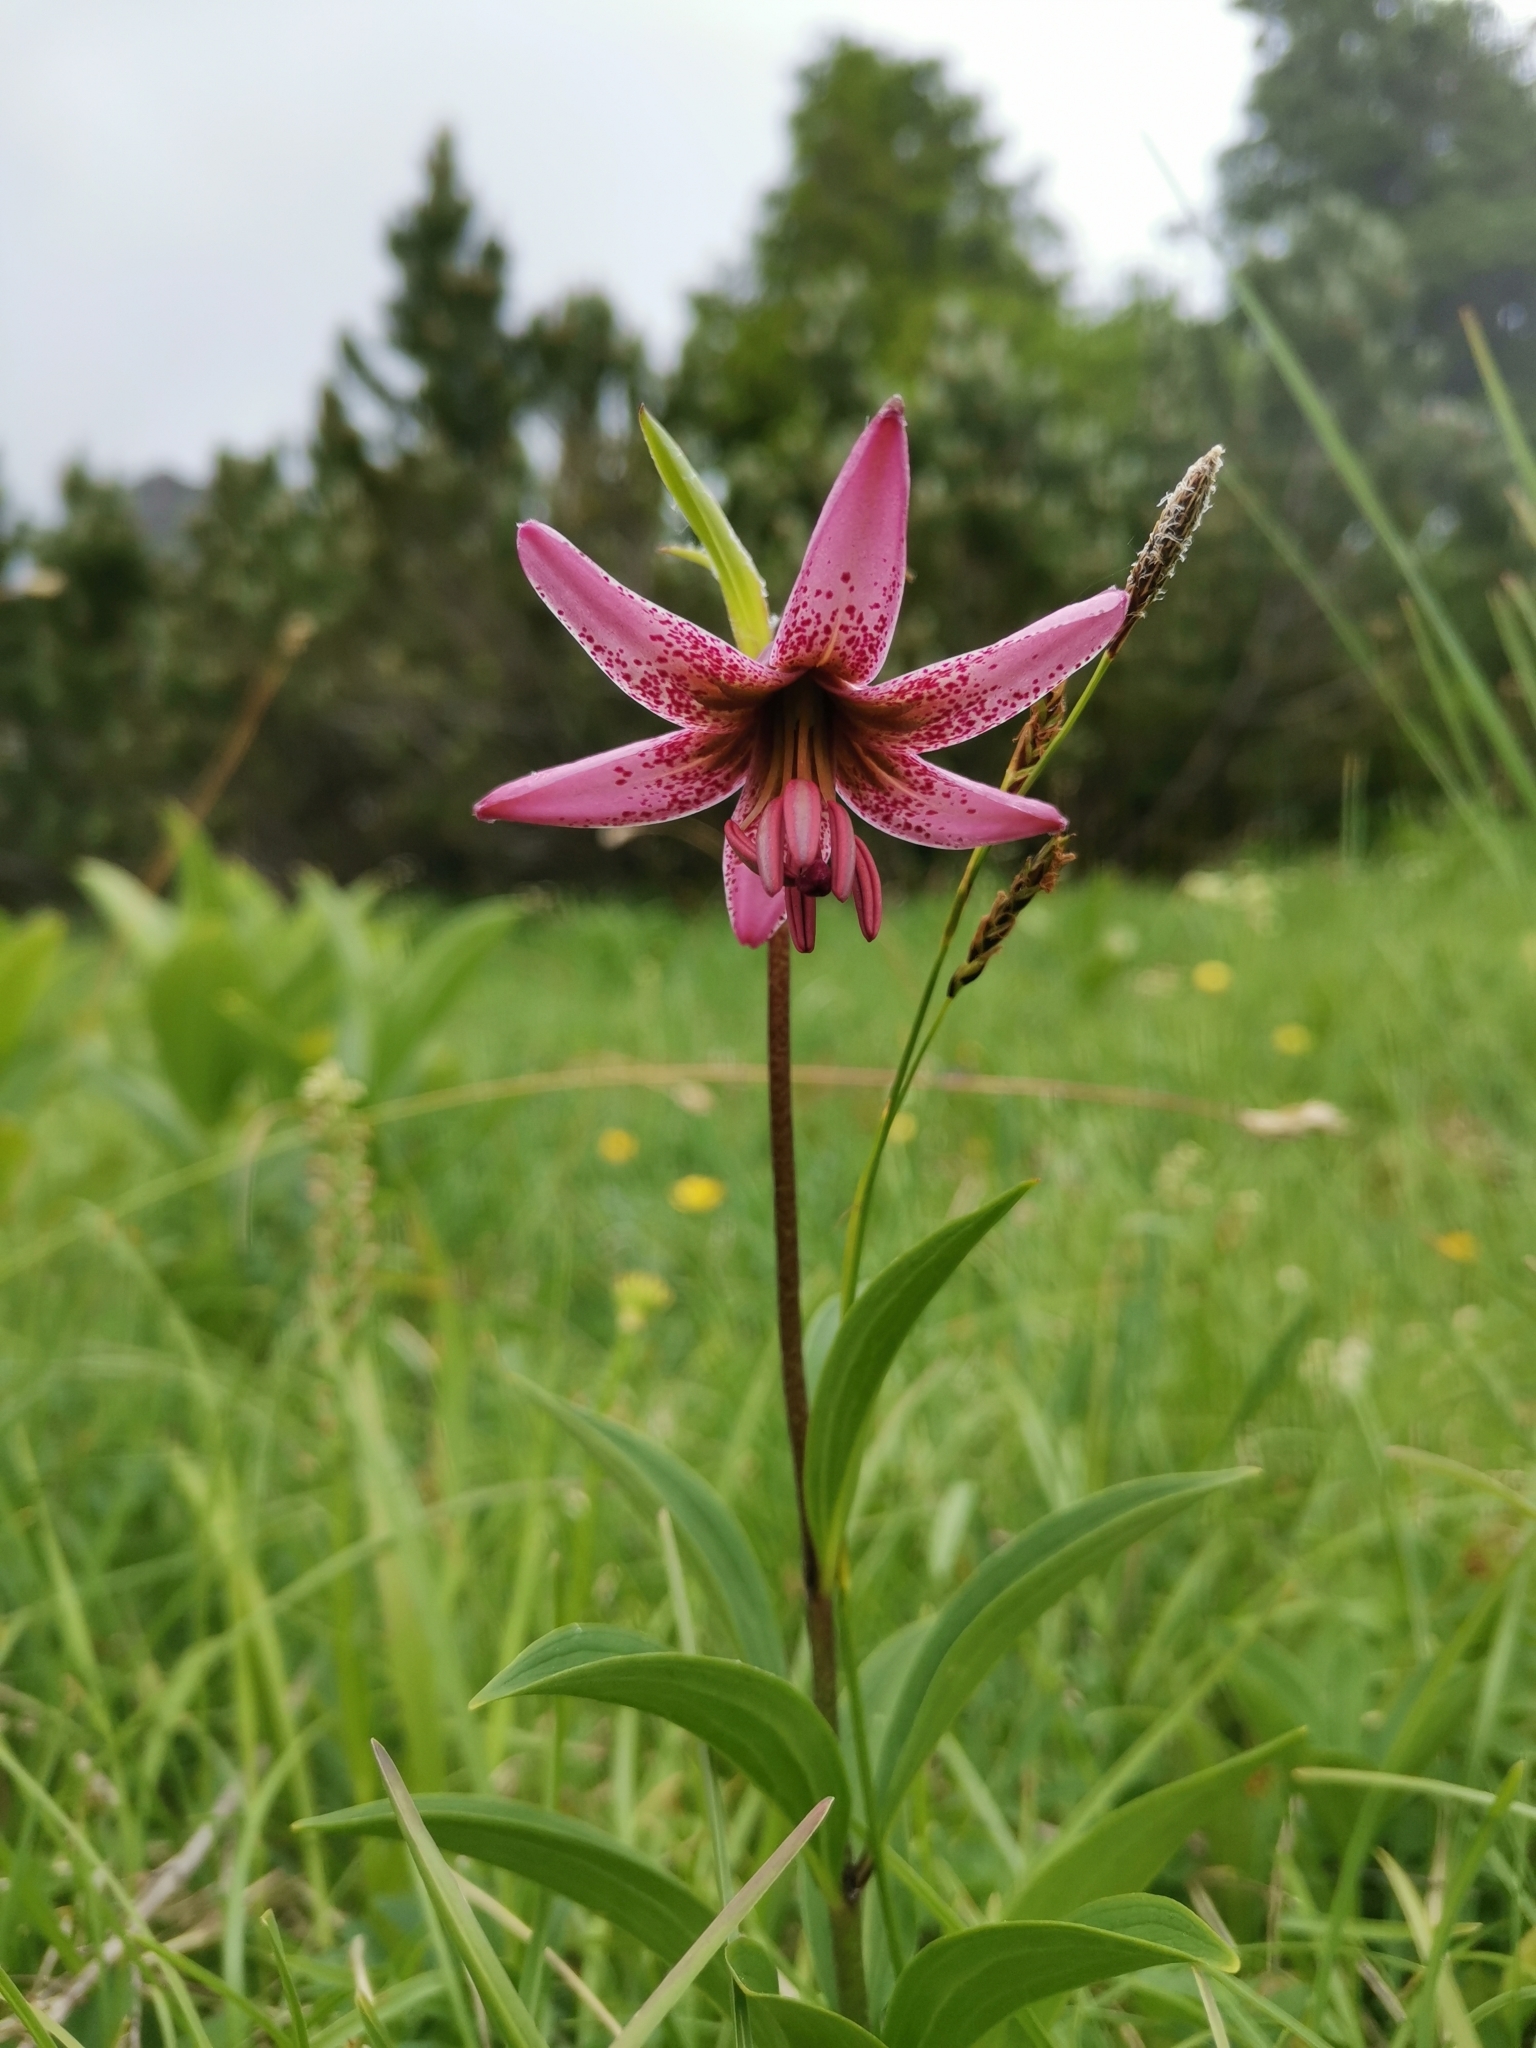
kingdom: Plantae
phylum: Tracheophyta
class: Liliopsida
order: Liliales
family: Liliaceae
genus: Lilium
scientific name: Lilium martagon
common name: Martagon lily
